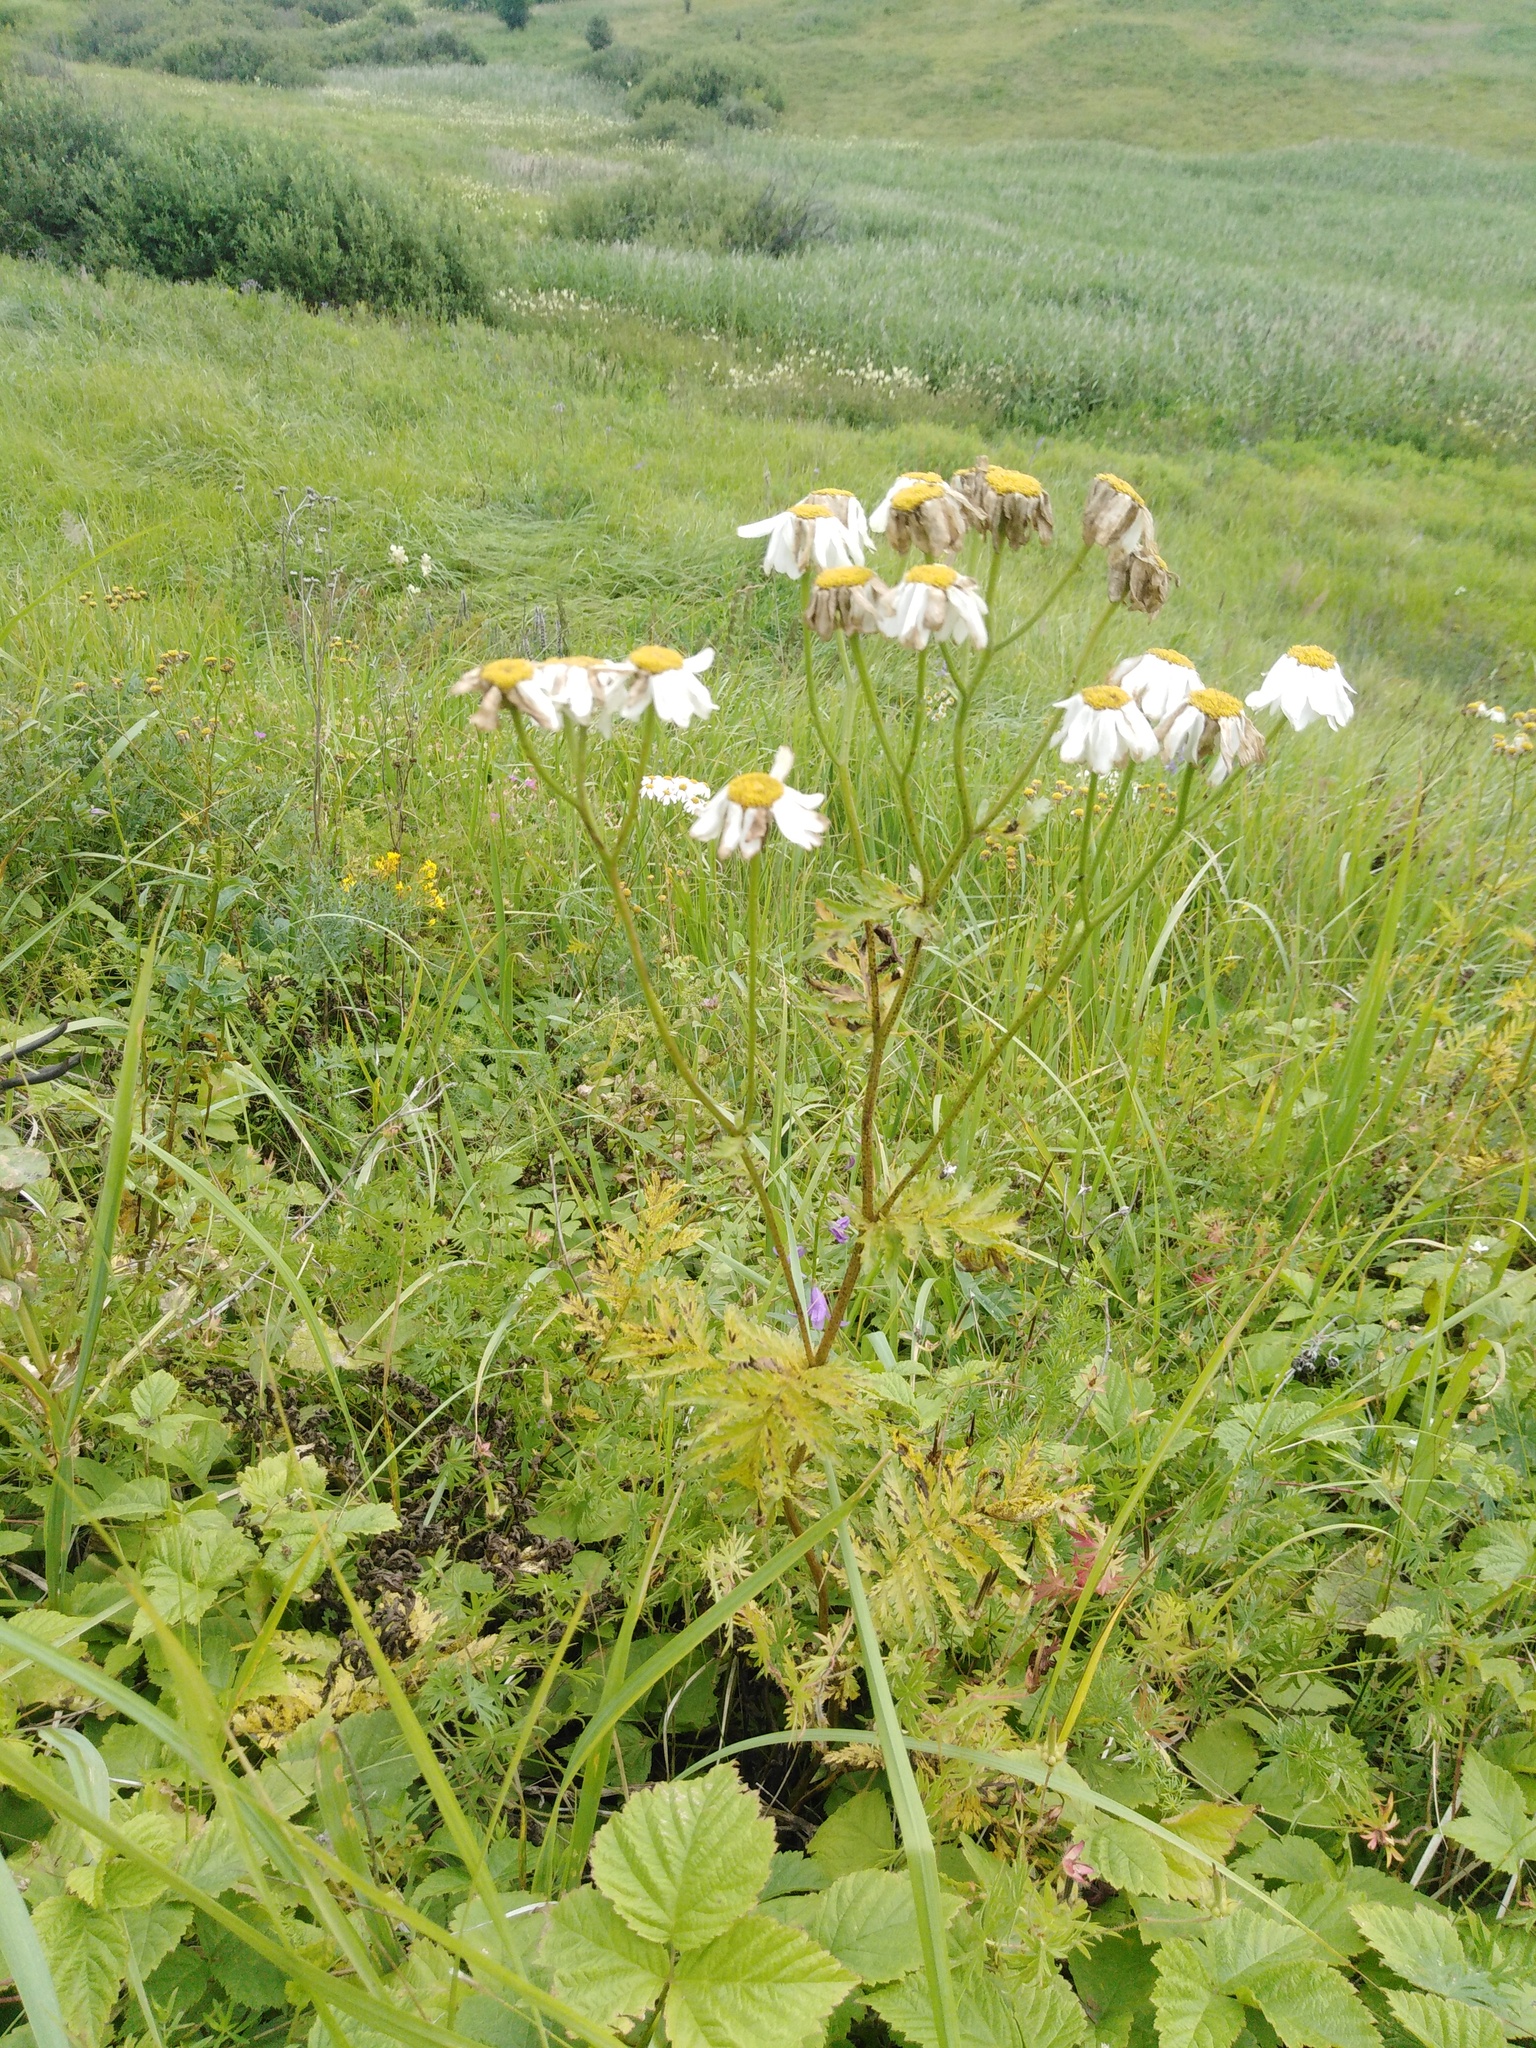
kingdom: Plantae
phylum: Tracheophyta
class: Magnoliopsida
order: Asterales
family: Asteraceae
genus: Tanacetum
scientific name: Tanacetum corymbosum
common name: Scentless feverfew
